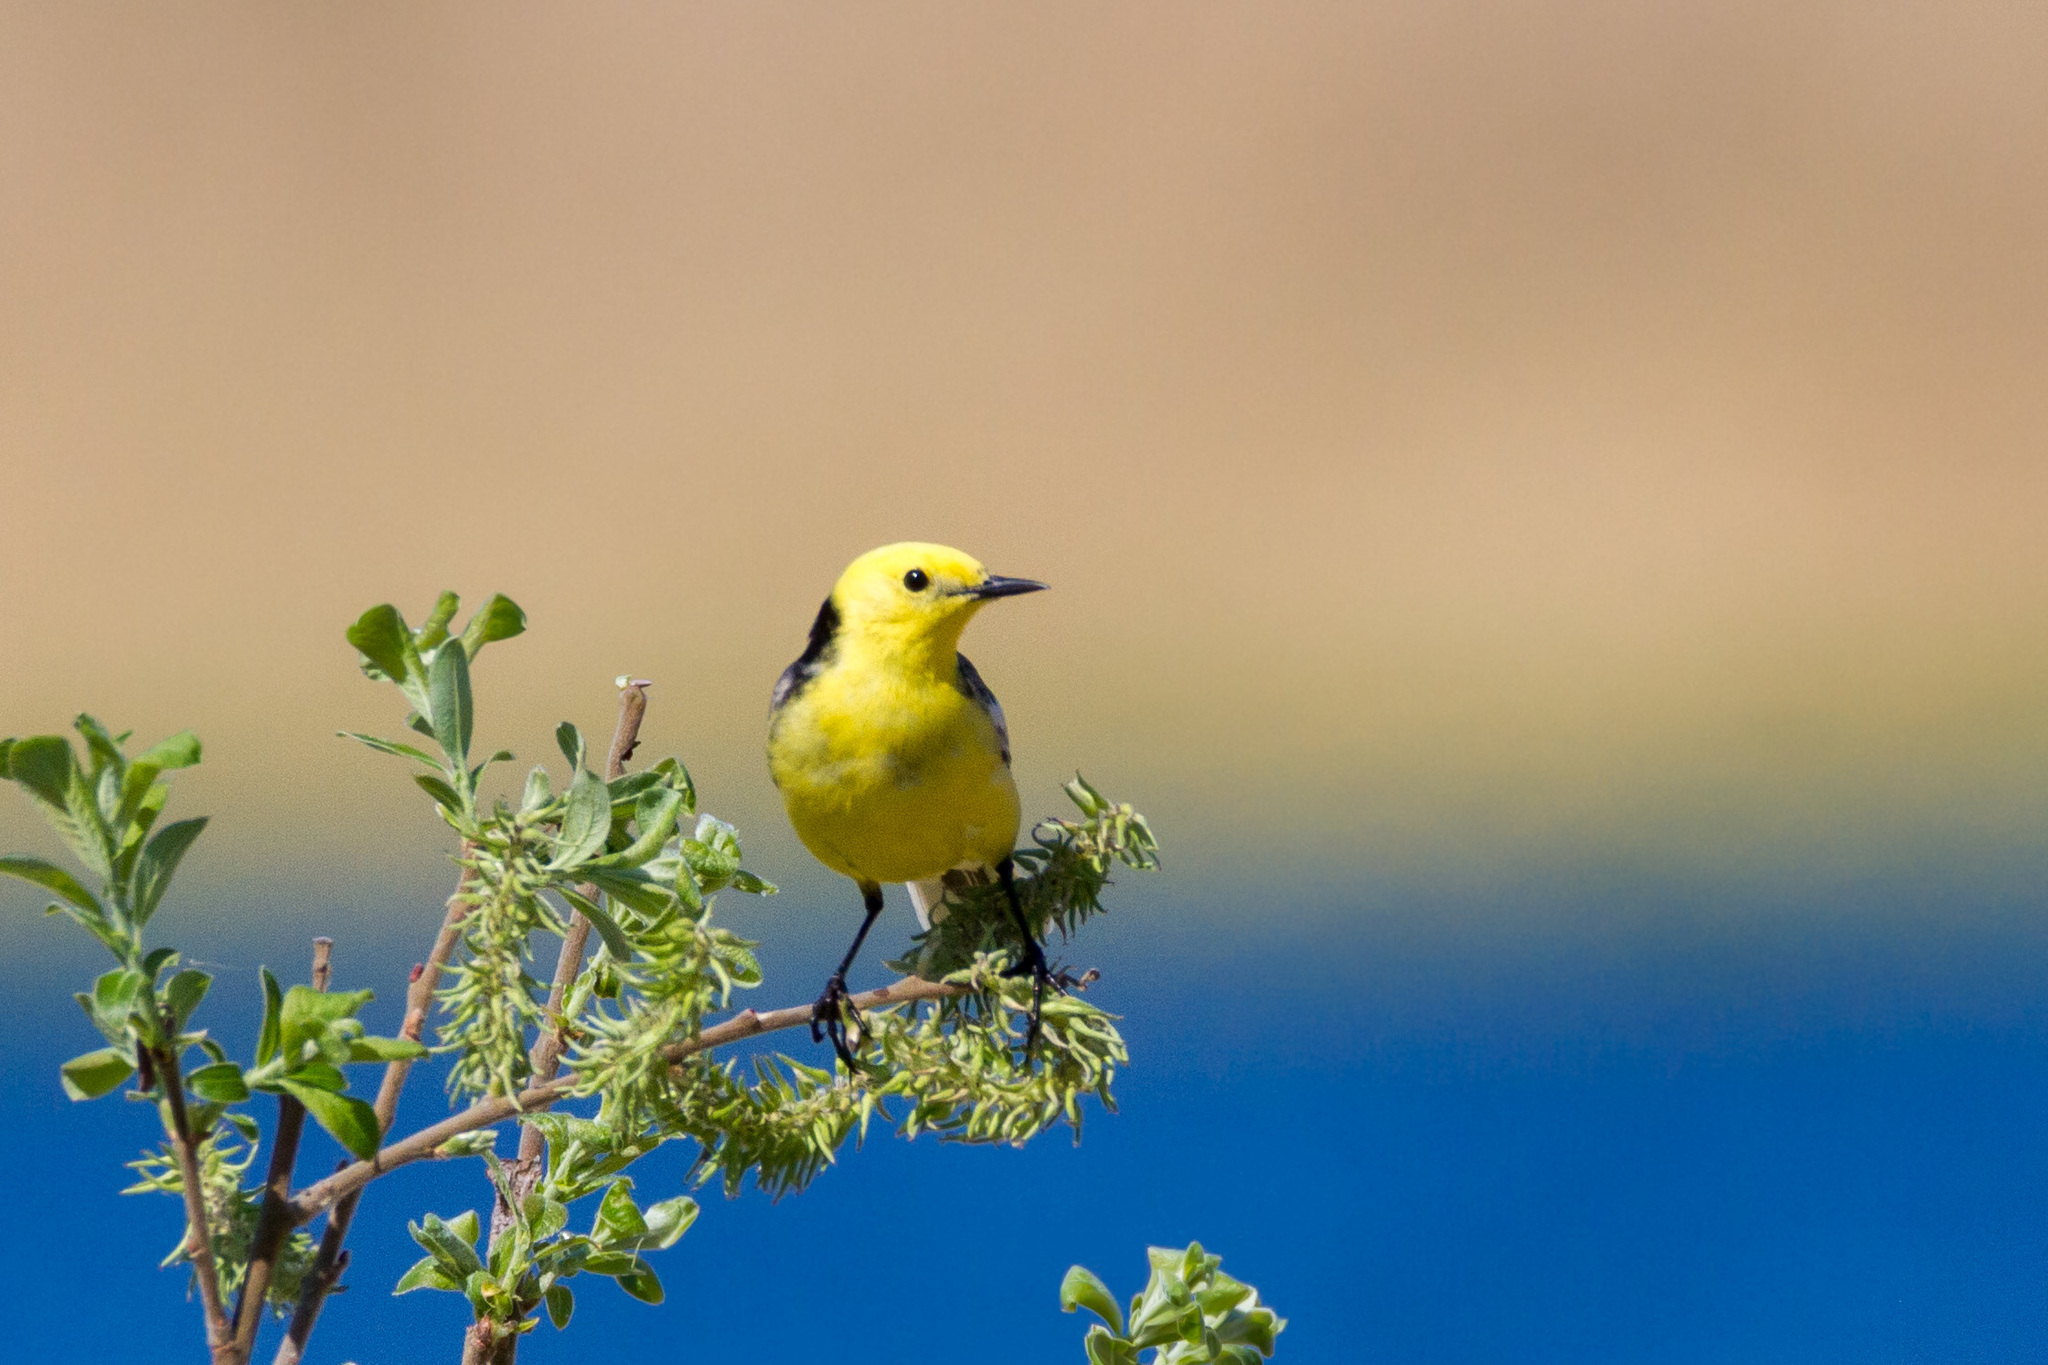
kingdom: Animalia
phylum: Chordata
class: Aves
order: Passeriformes
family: Motacillidae
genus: Motacilla
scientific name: Motacilla citreola
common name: Citrine wagtail
